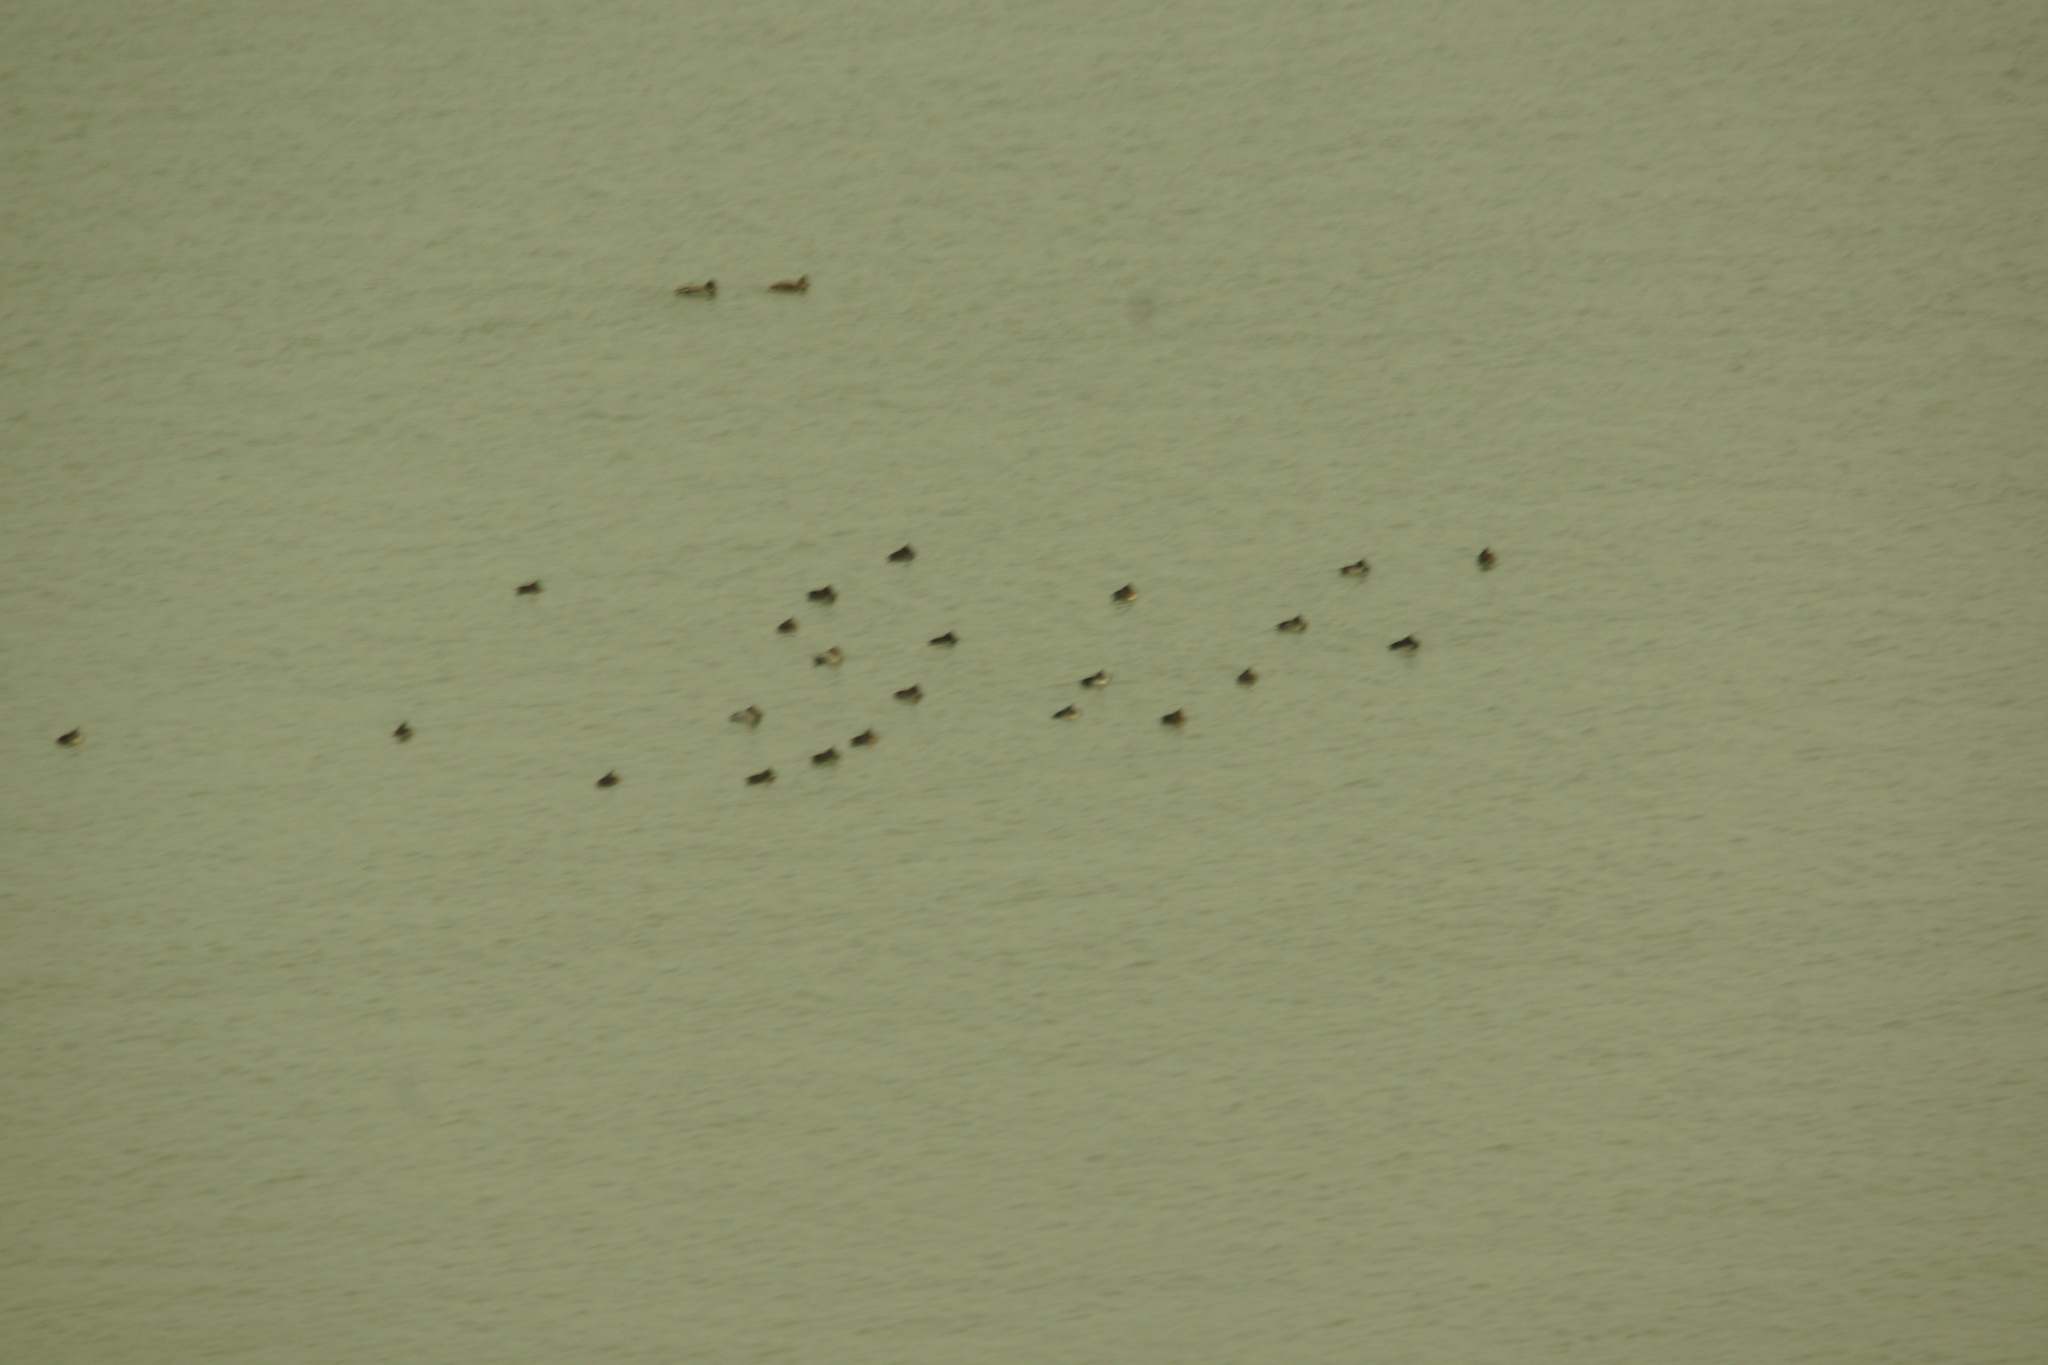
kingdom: Animalia
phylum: Chordata
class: Aves
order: Anseriformes
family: Anatidae
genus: Aythya
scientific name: Aythya fuligula
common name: Tufted duck
